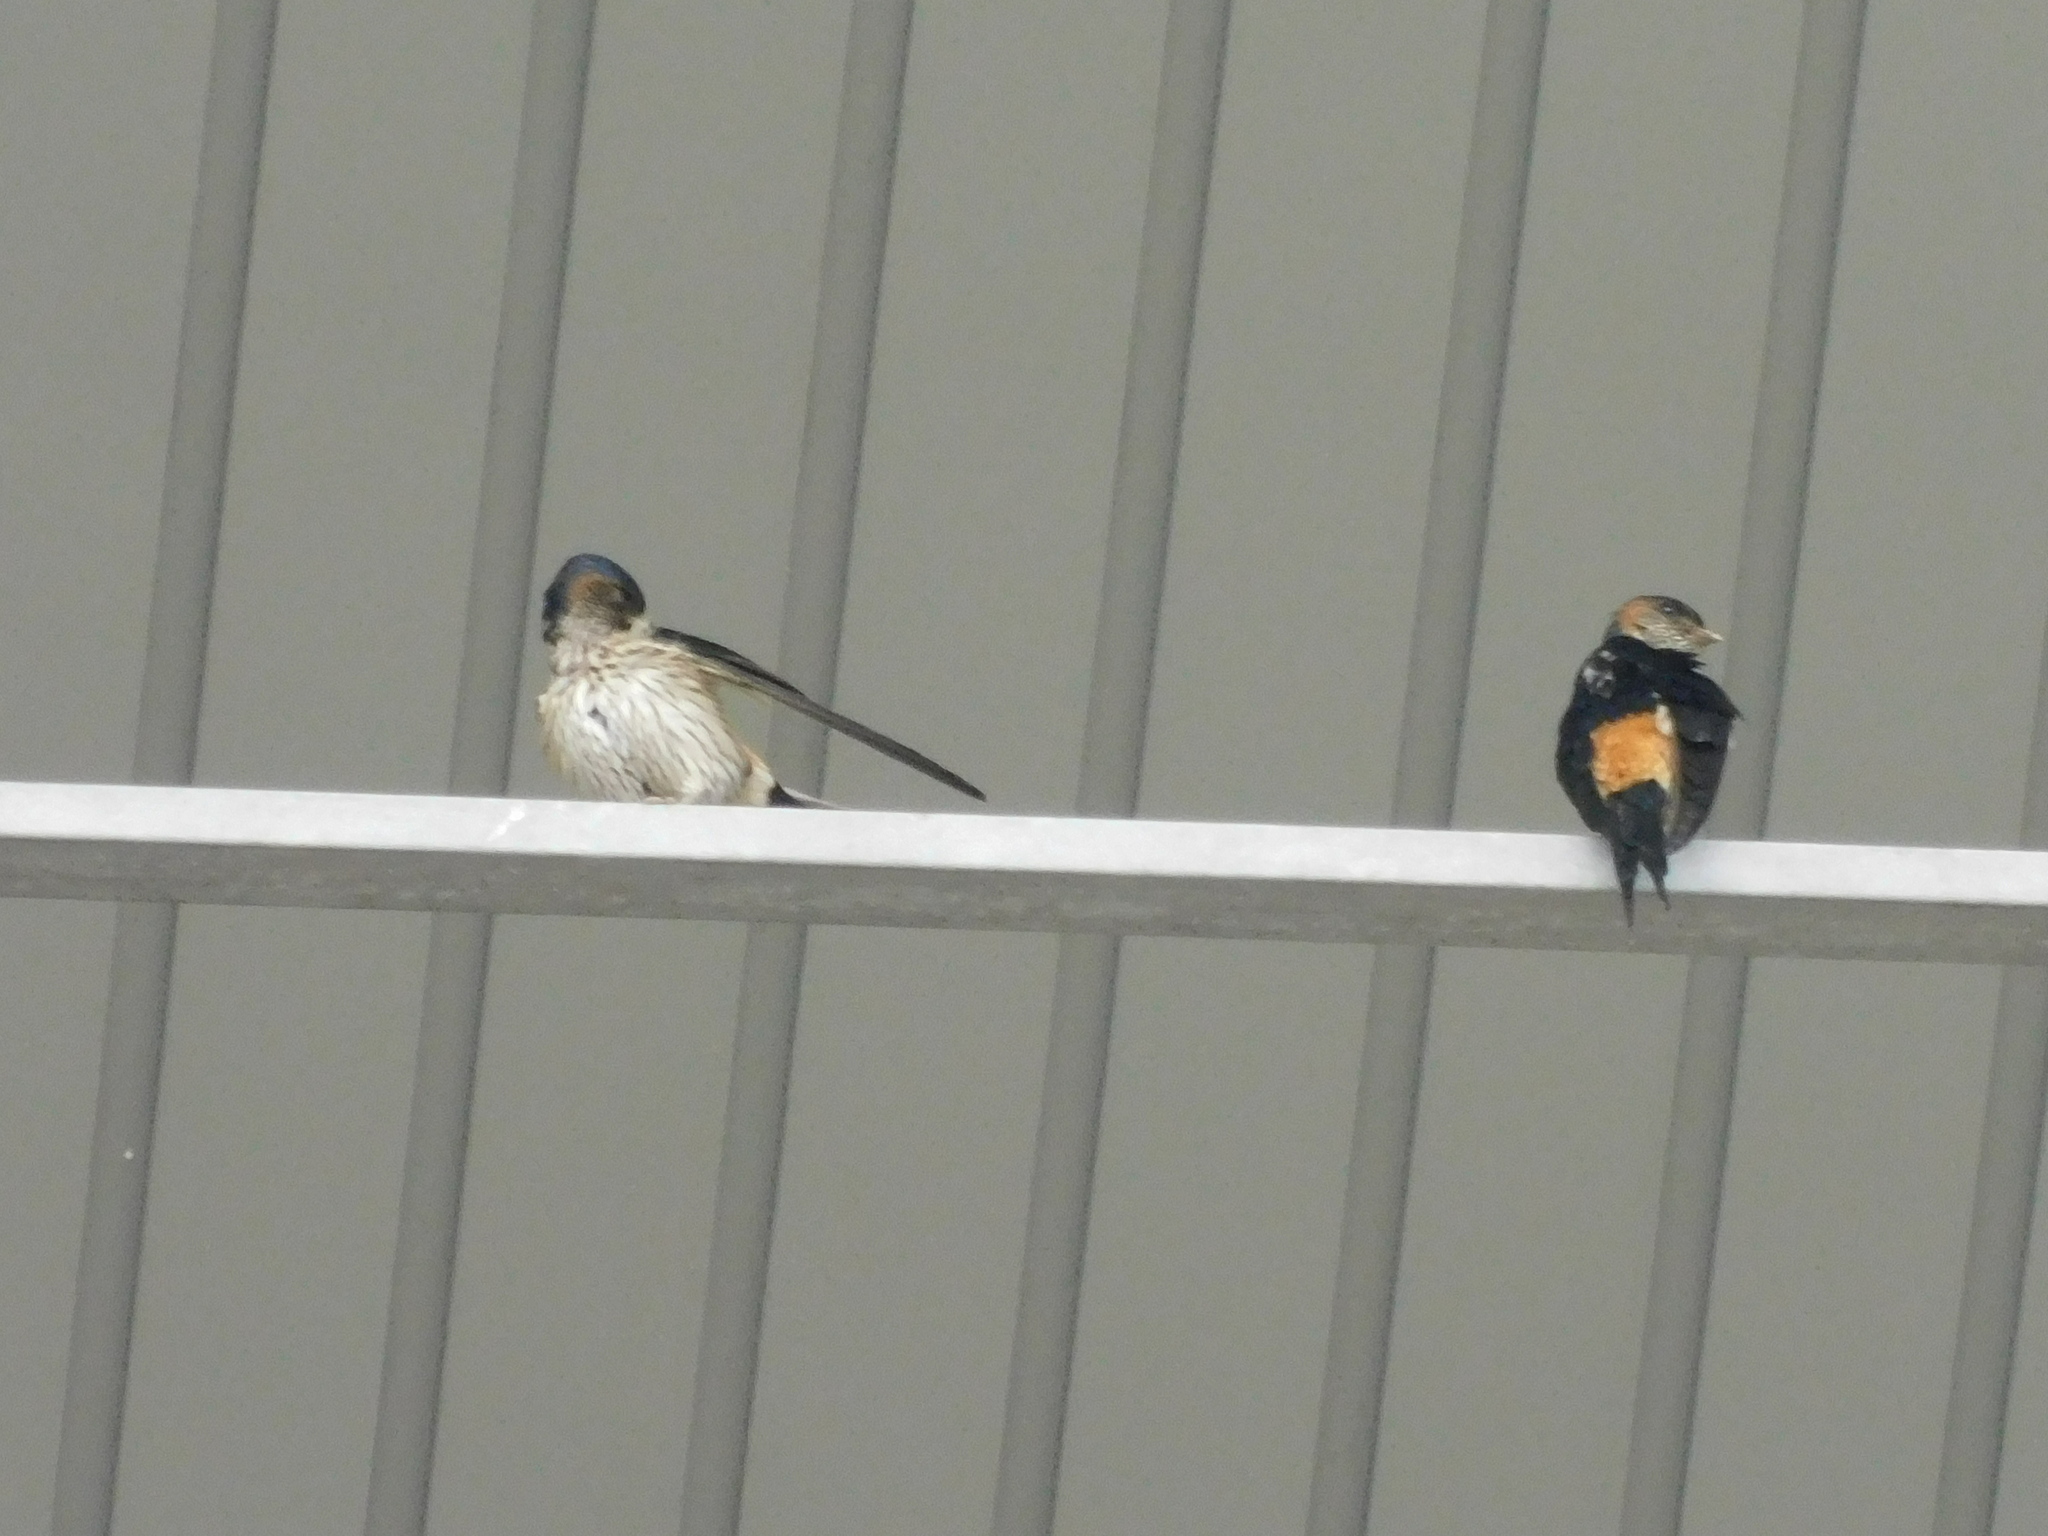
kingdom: Animalia
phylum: Chordata
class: Aves
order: Passeriformes
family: Hirundinidae
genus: Cecropis
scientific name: Cecropis striolata
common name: Striated swallow
